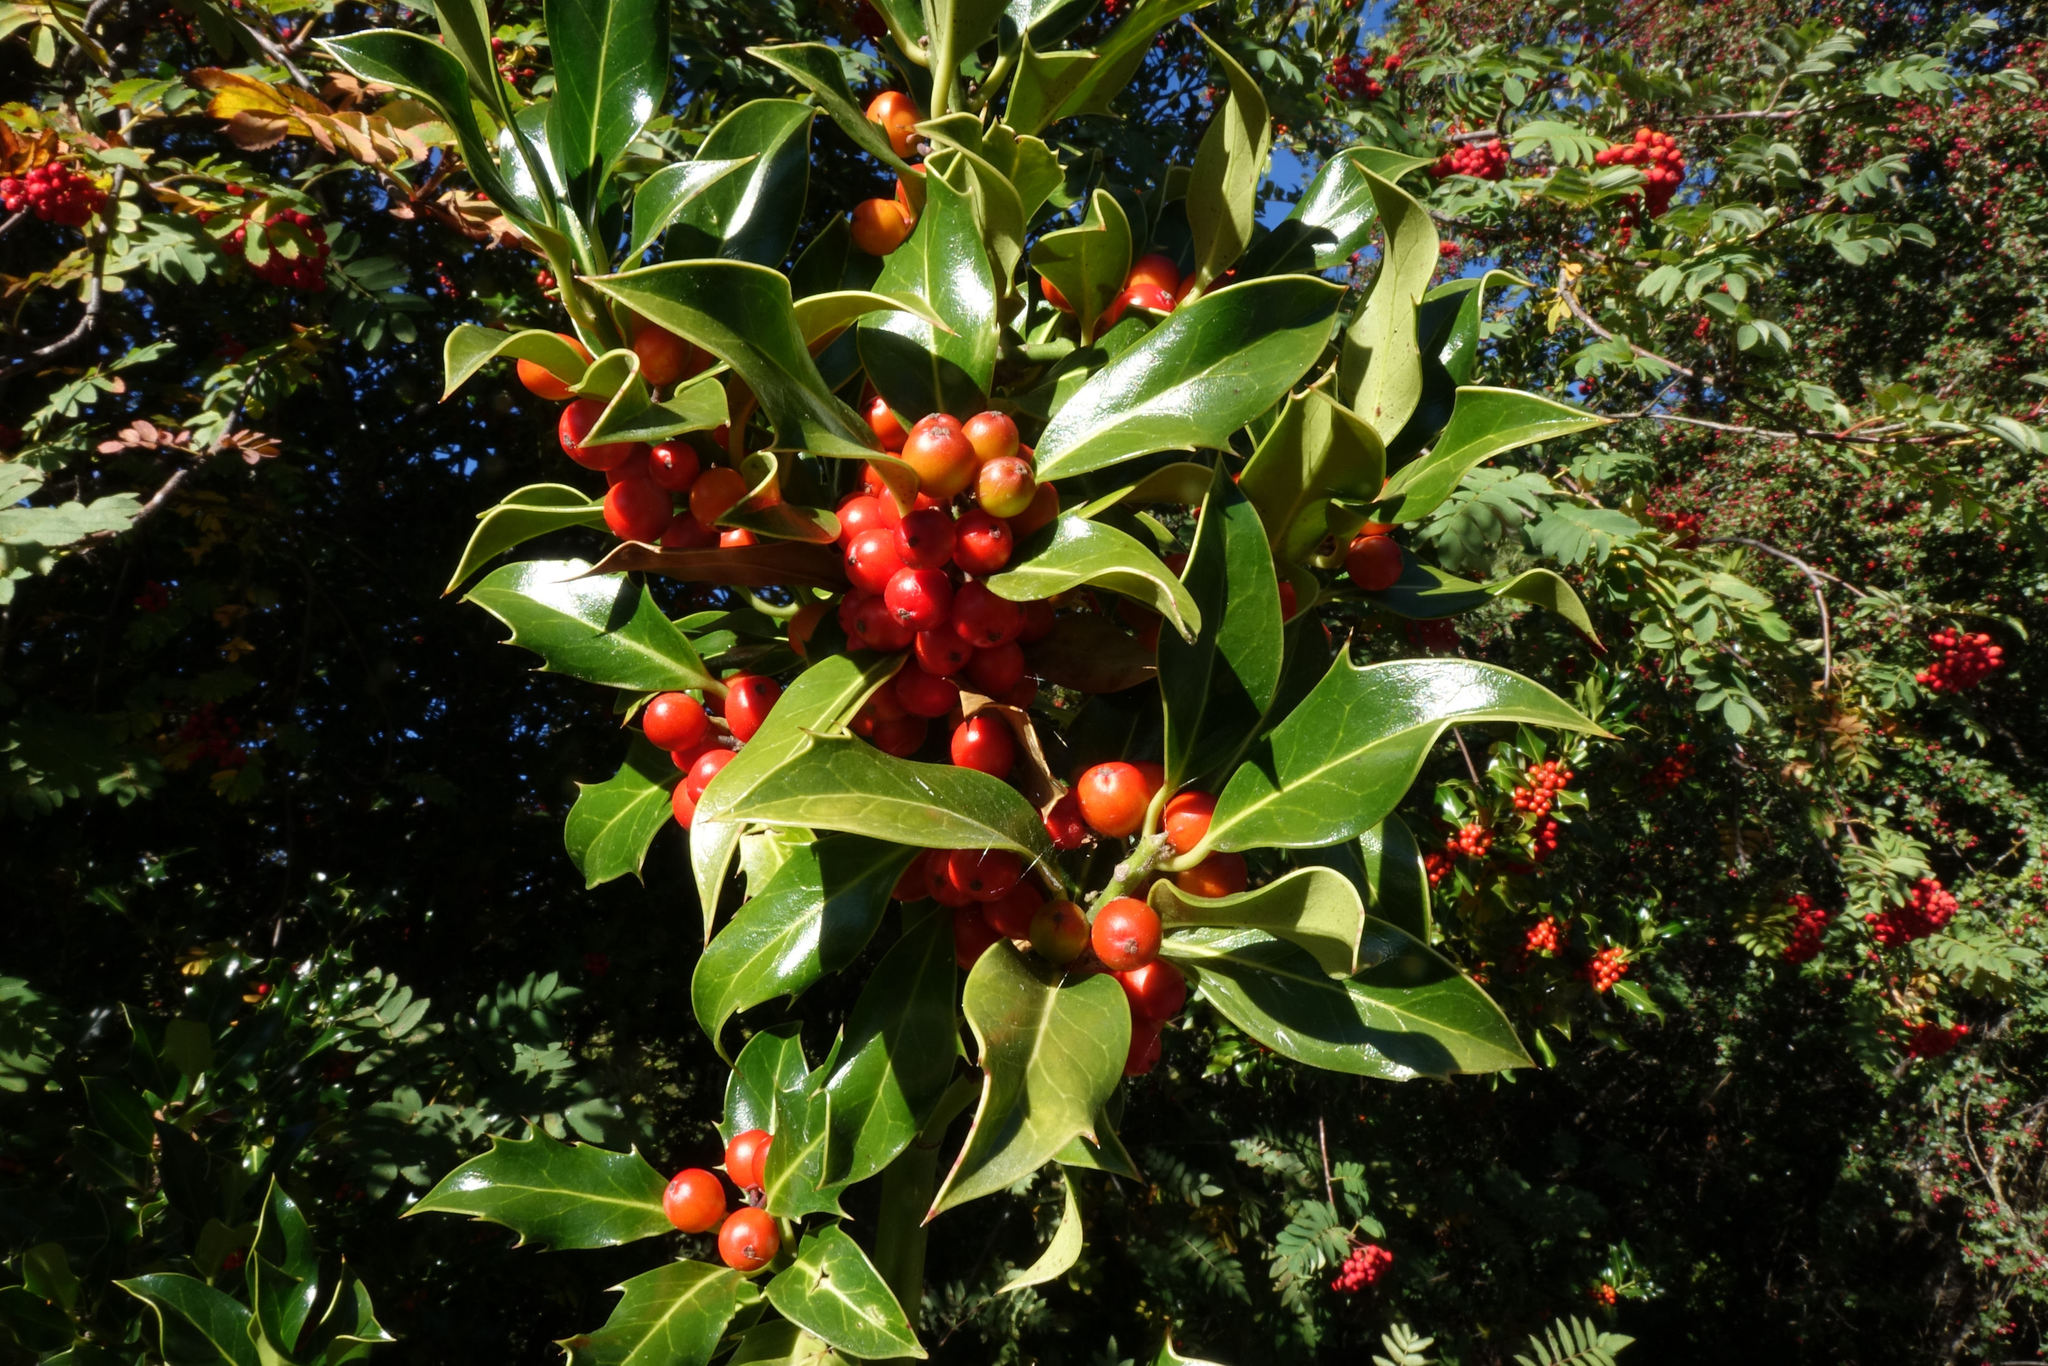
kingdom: Plantae
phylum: Tracheophyta
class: Magnoliopsida
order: Aquifoliales
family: Aquifoliaceae
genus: Ilex
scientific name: Ilex aquifolium
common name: English holly
